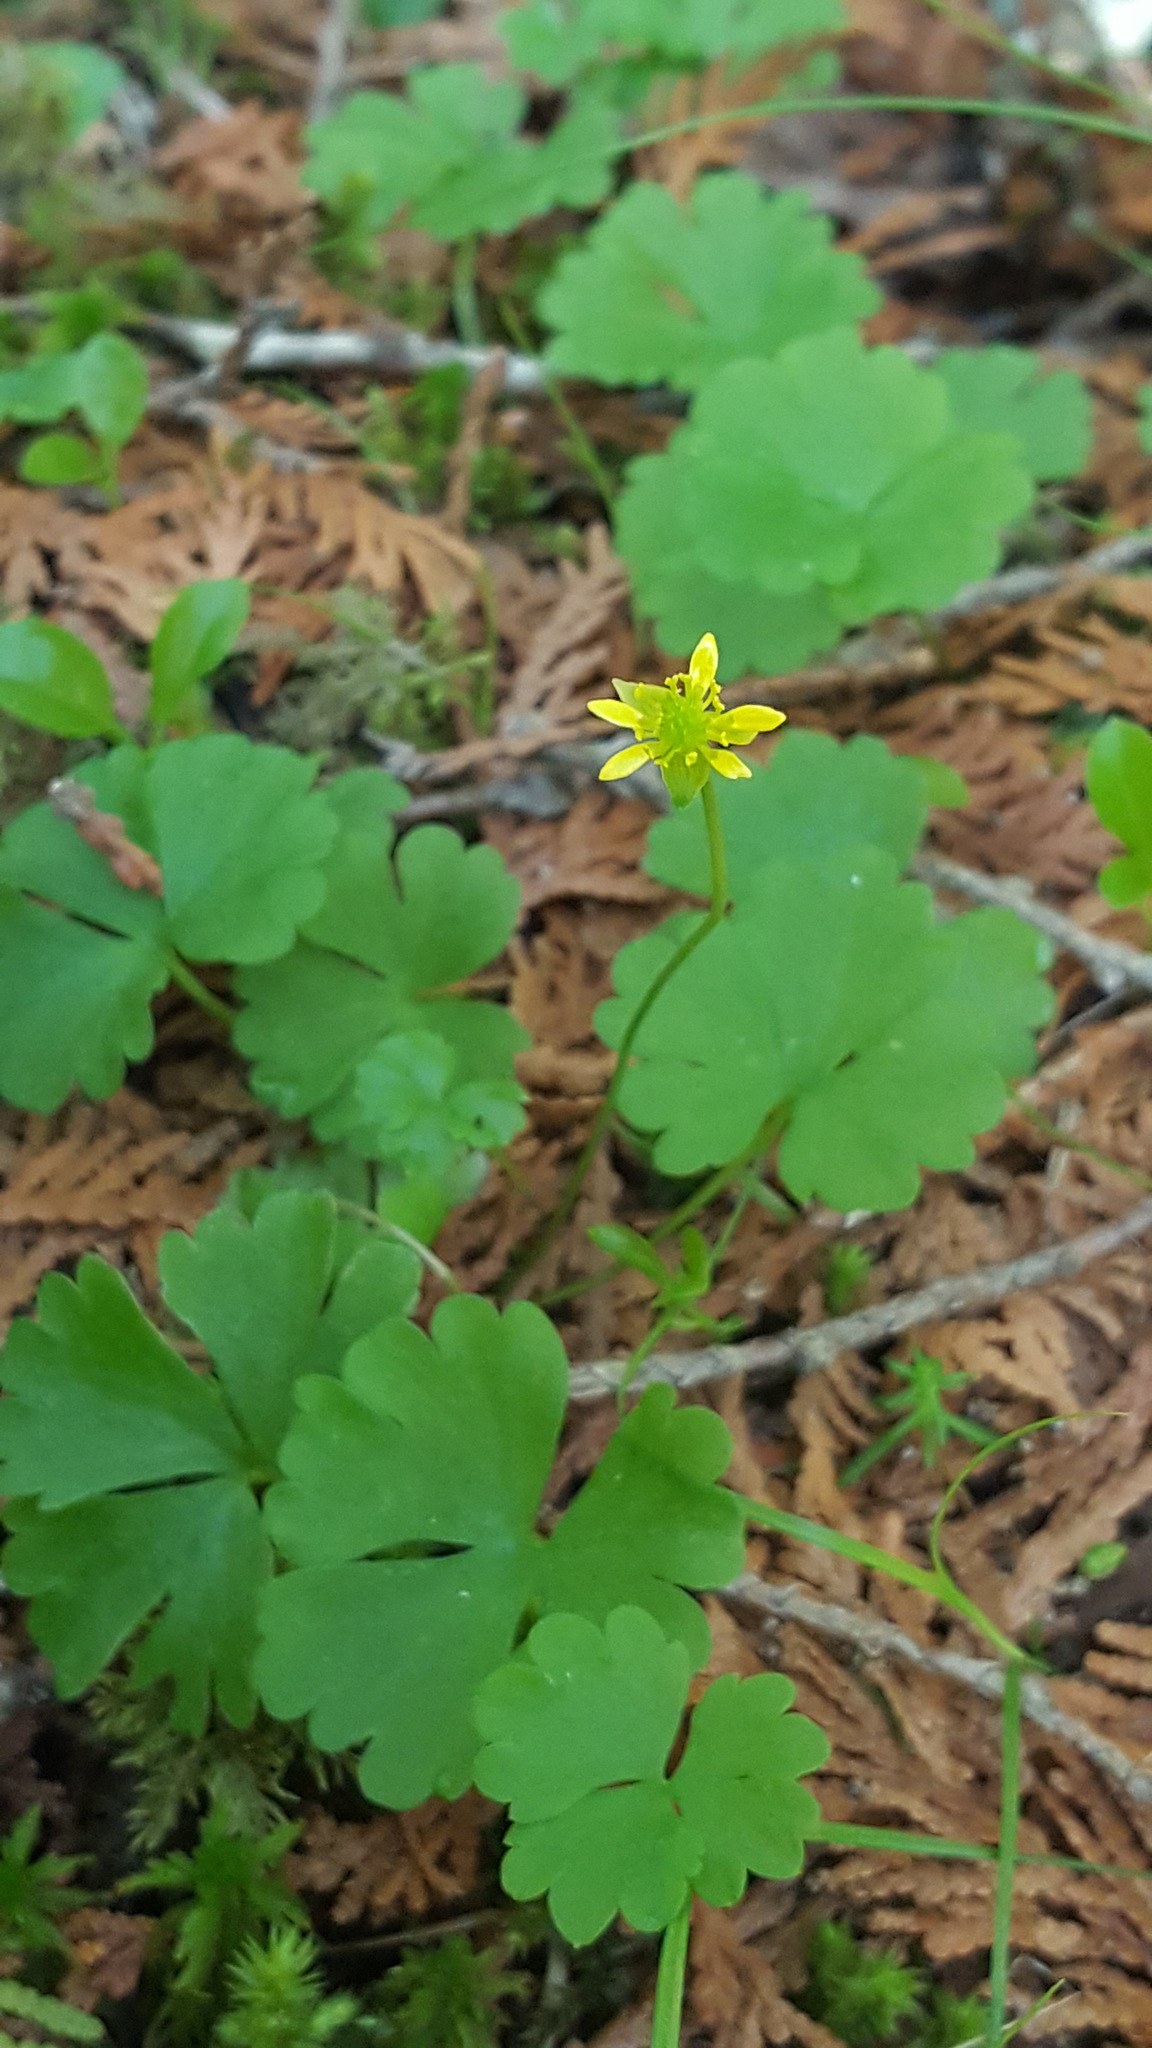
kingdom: Plantae
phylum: Tracheophyta
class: Magnoliopsida
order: Ranunculales
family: Ranunculaceae
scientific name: Ranunculaceae
